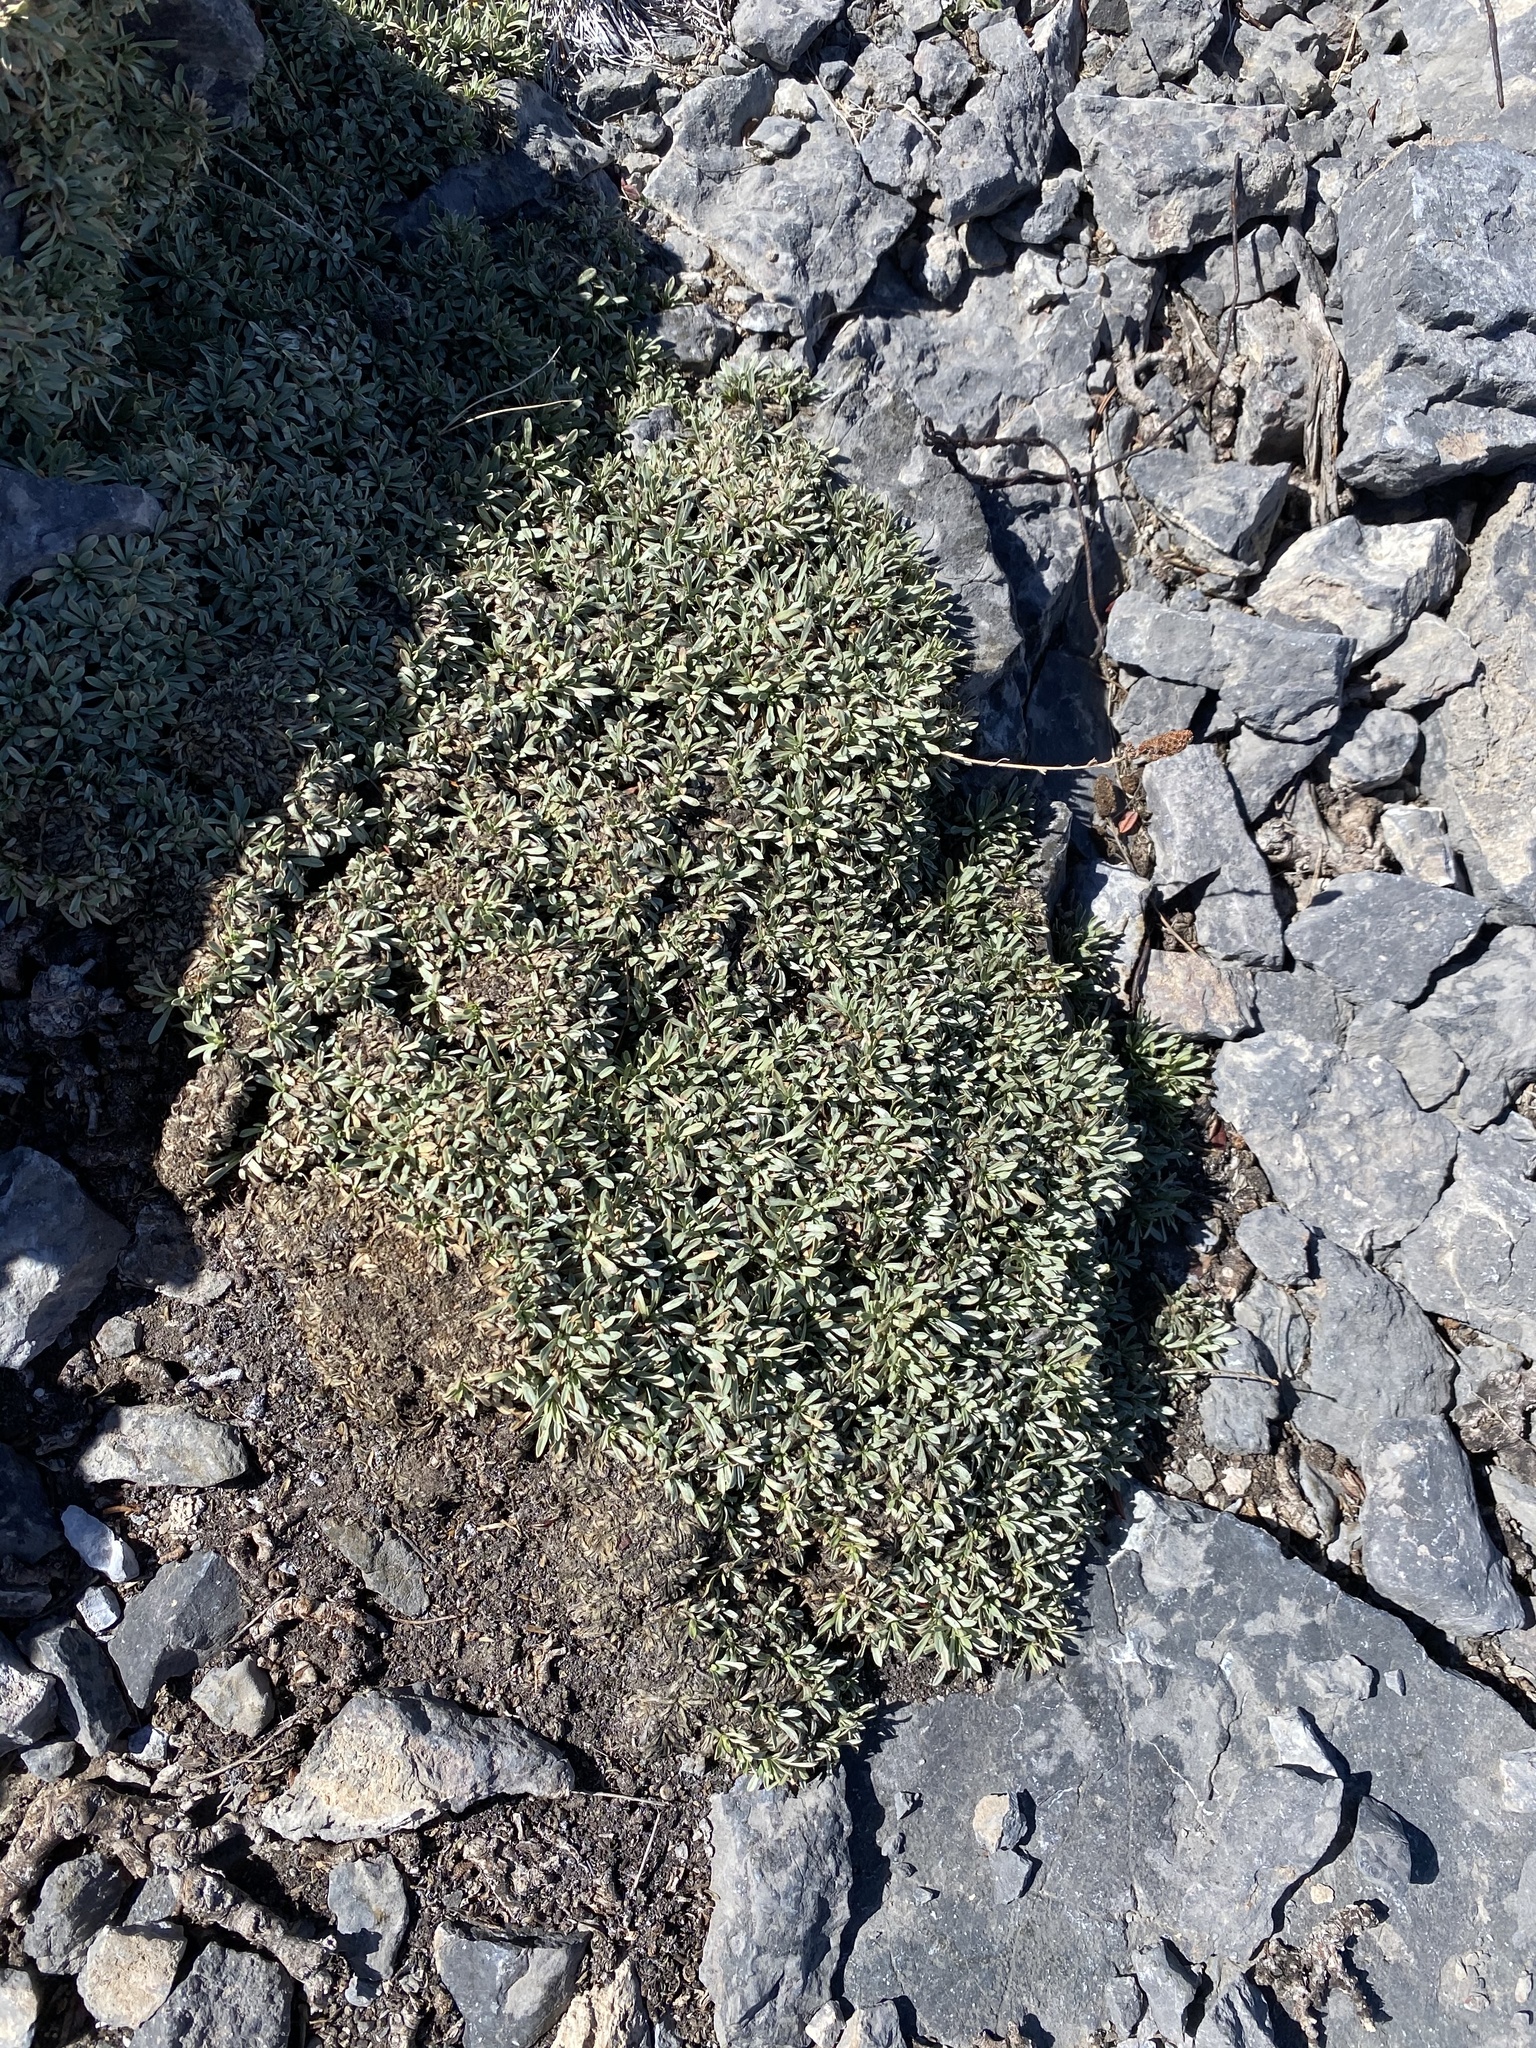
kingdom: Plantae
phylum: Tracheophyta
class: Magnoliopsida
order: Rosales
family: Rosaceae
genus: Petrophytum
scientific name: Petrophytum caespitosum
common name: Mat rockspirea
